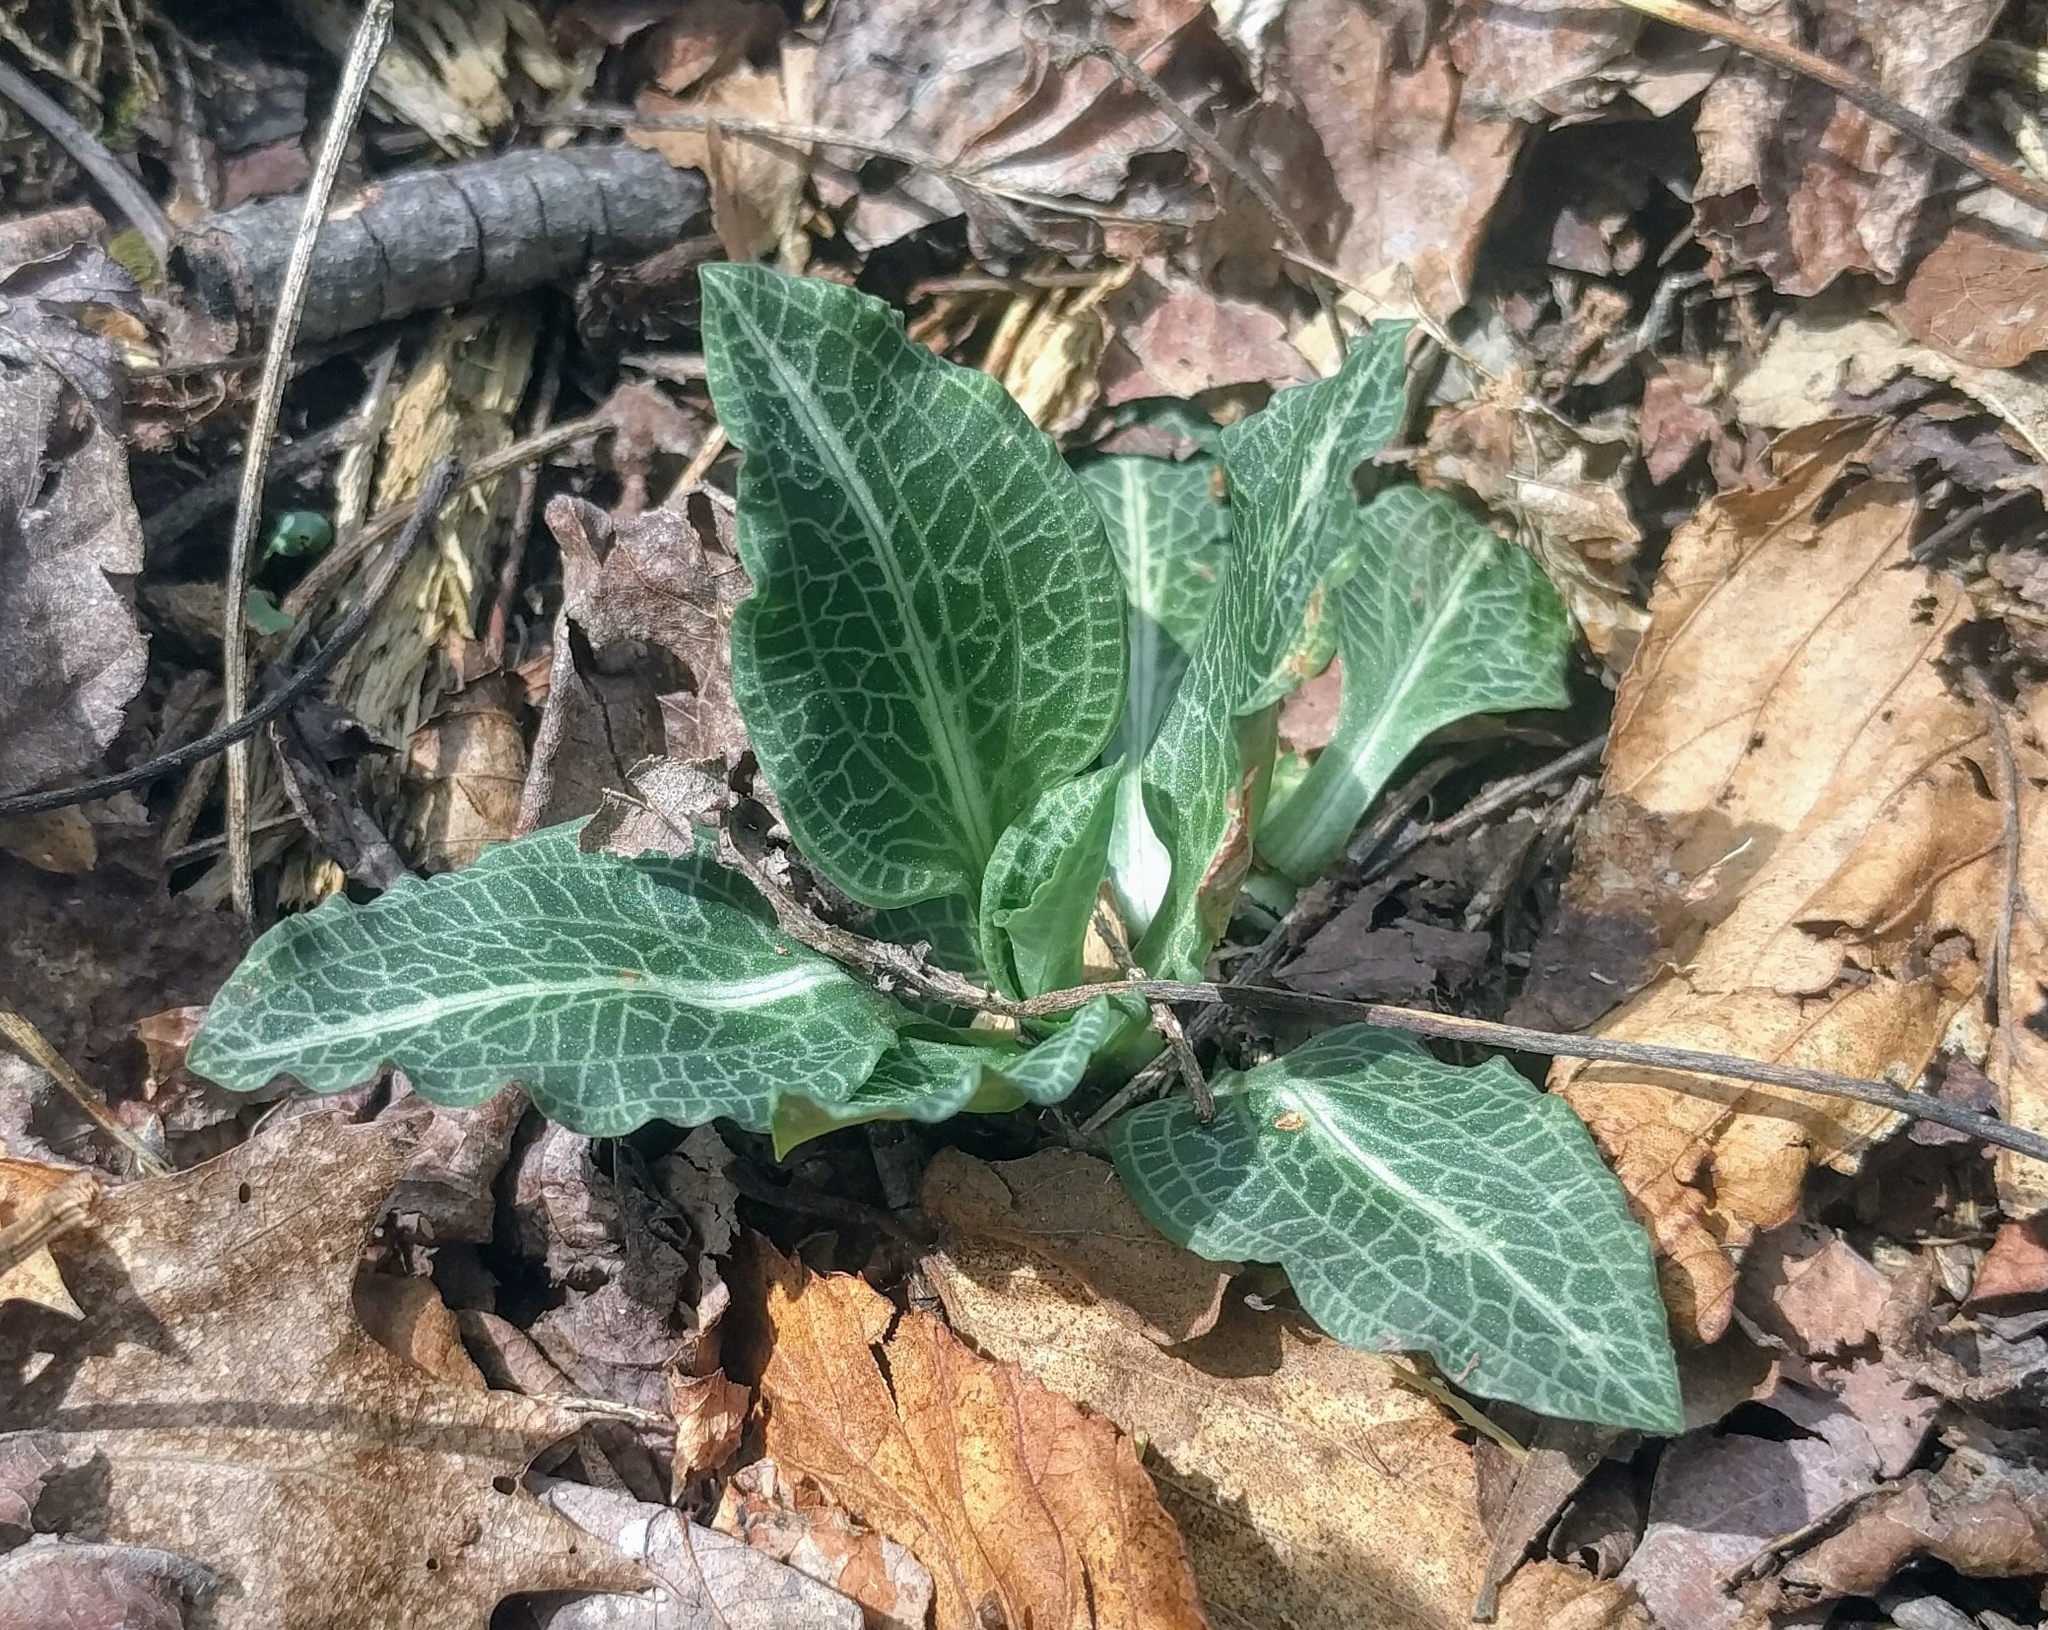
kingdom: Plantae
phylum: Tracheophyta
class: Liliopsida
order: Asparagales
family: Orchidaceae
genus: Goodyera
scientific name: Goodyera pubescens
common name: Downy rattlesnake-plantain
